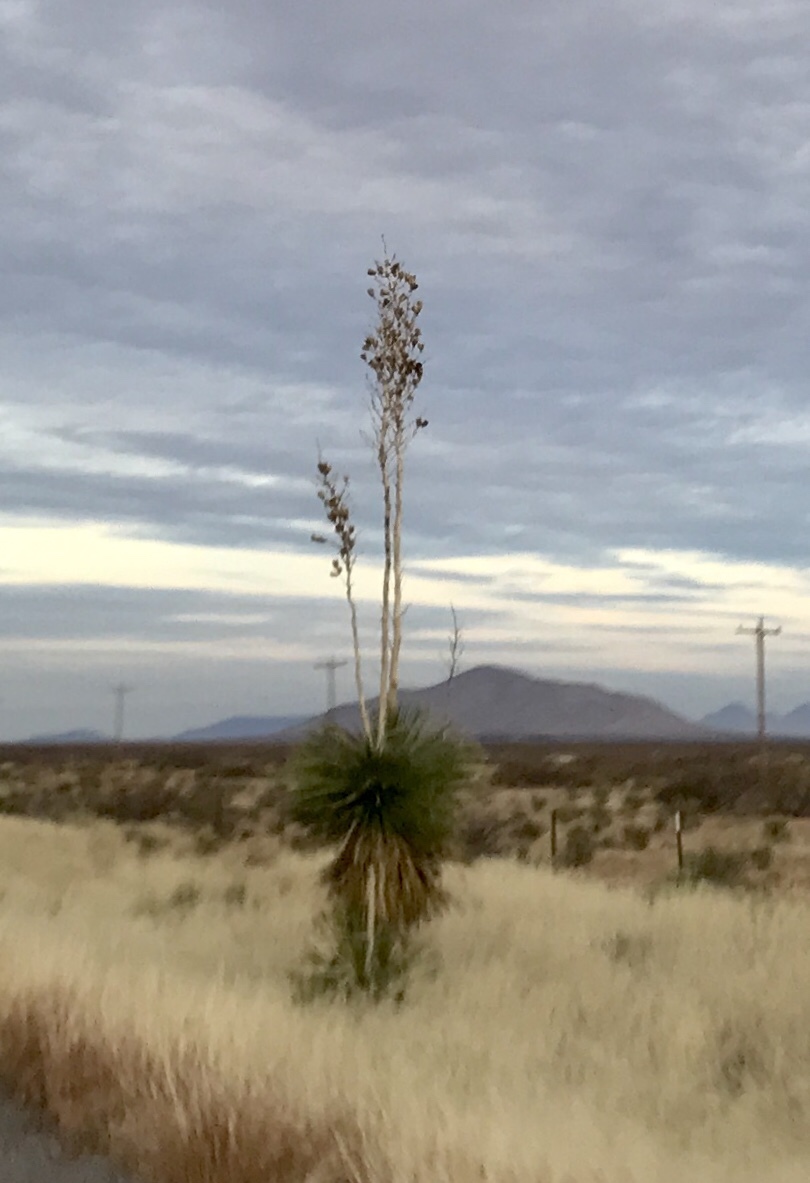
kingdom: Plantae
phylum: Tracheophyta
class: Liliopsida
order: Asparagales
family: Asparagaceae
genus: Yucca
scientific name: Yucca elata
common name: Palmella
